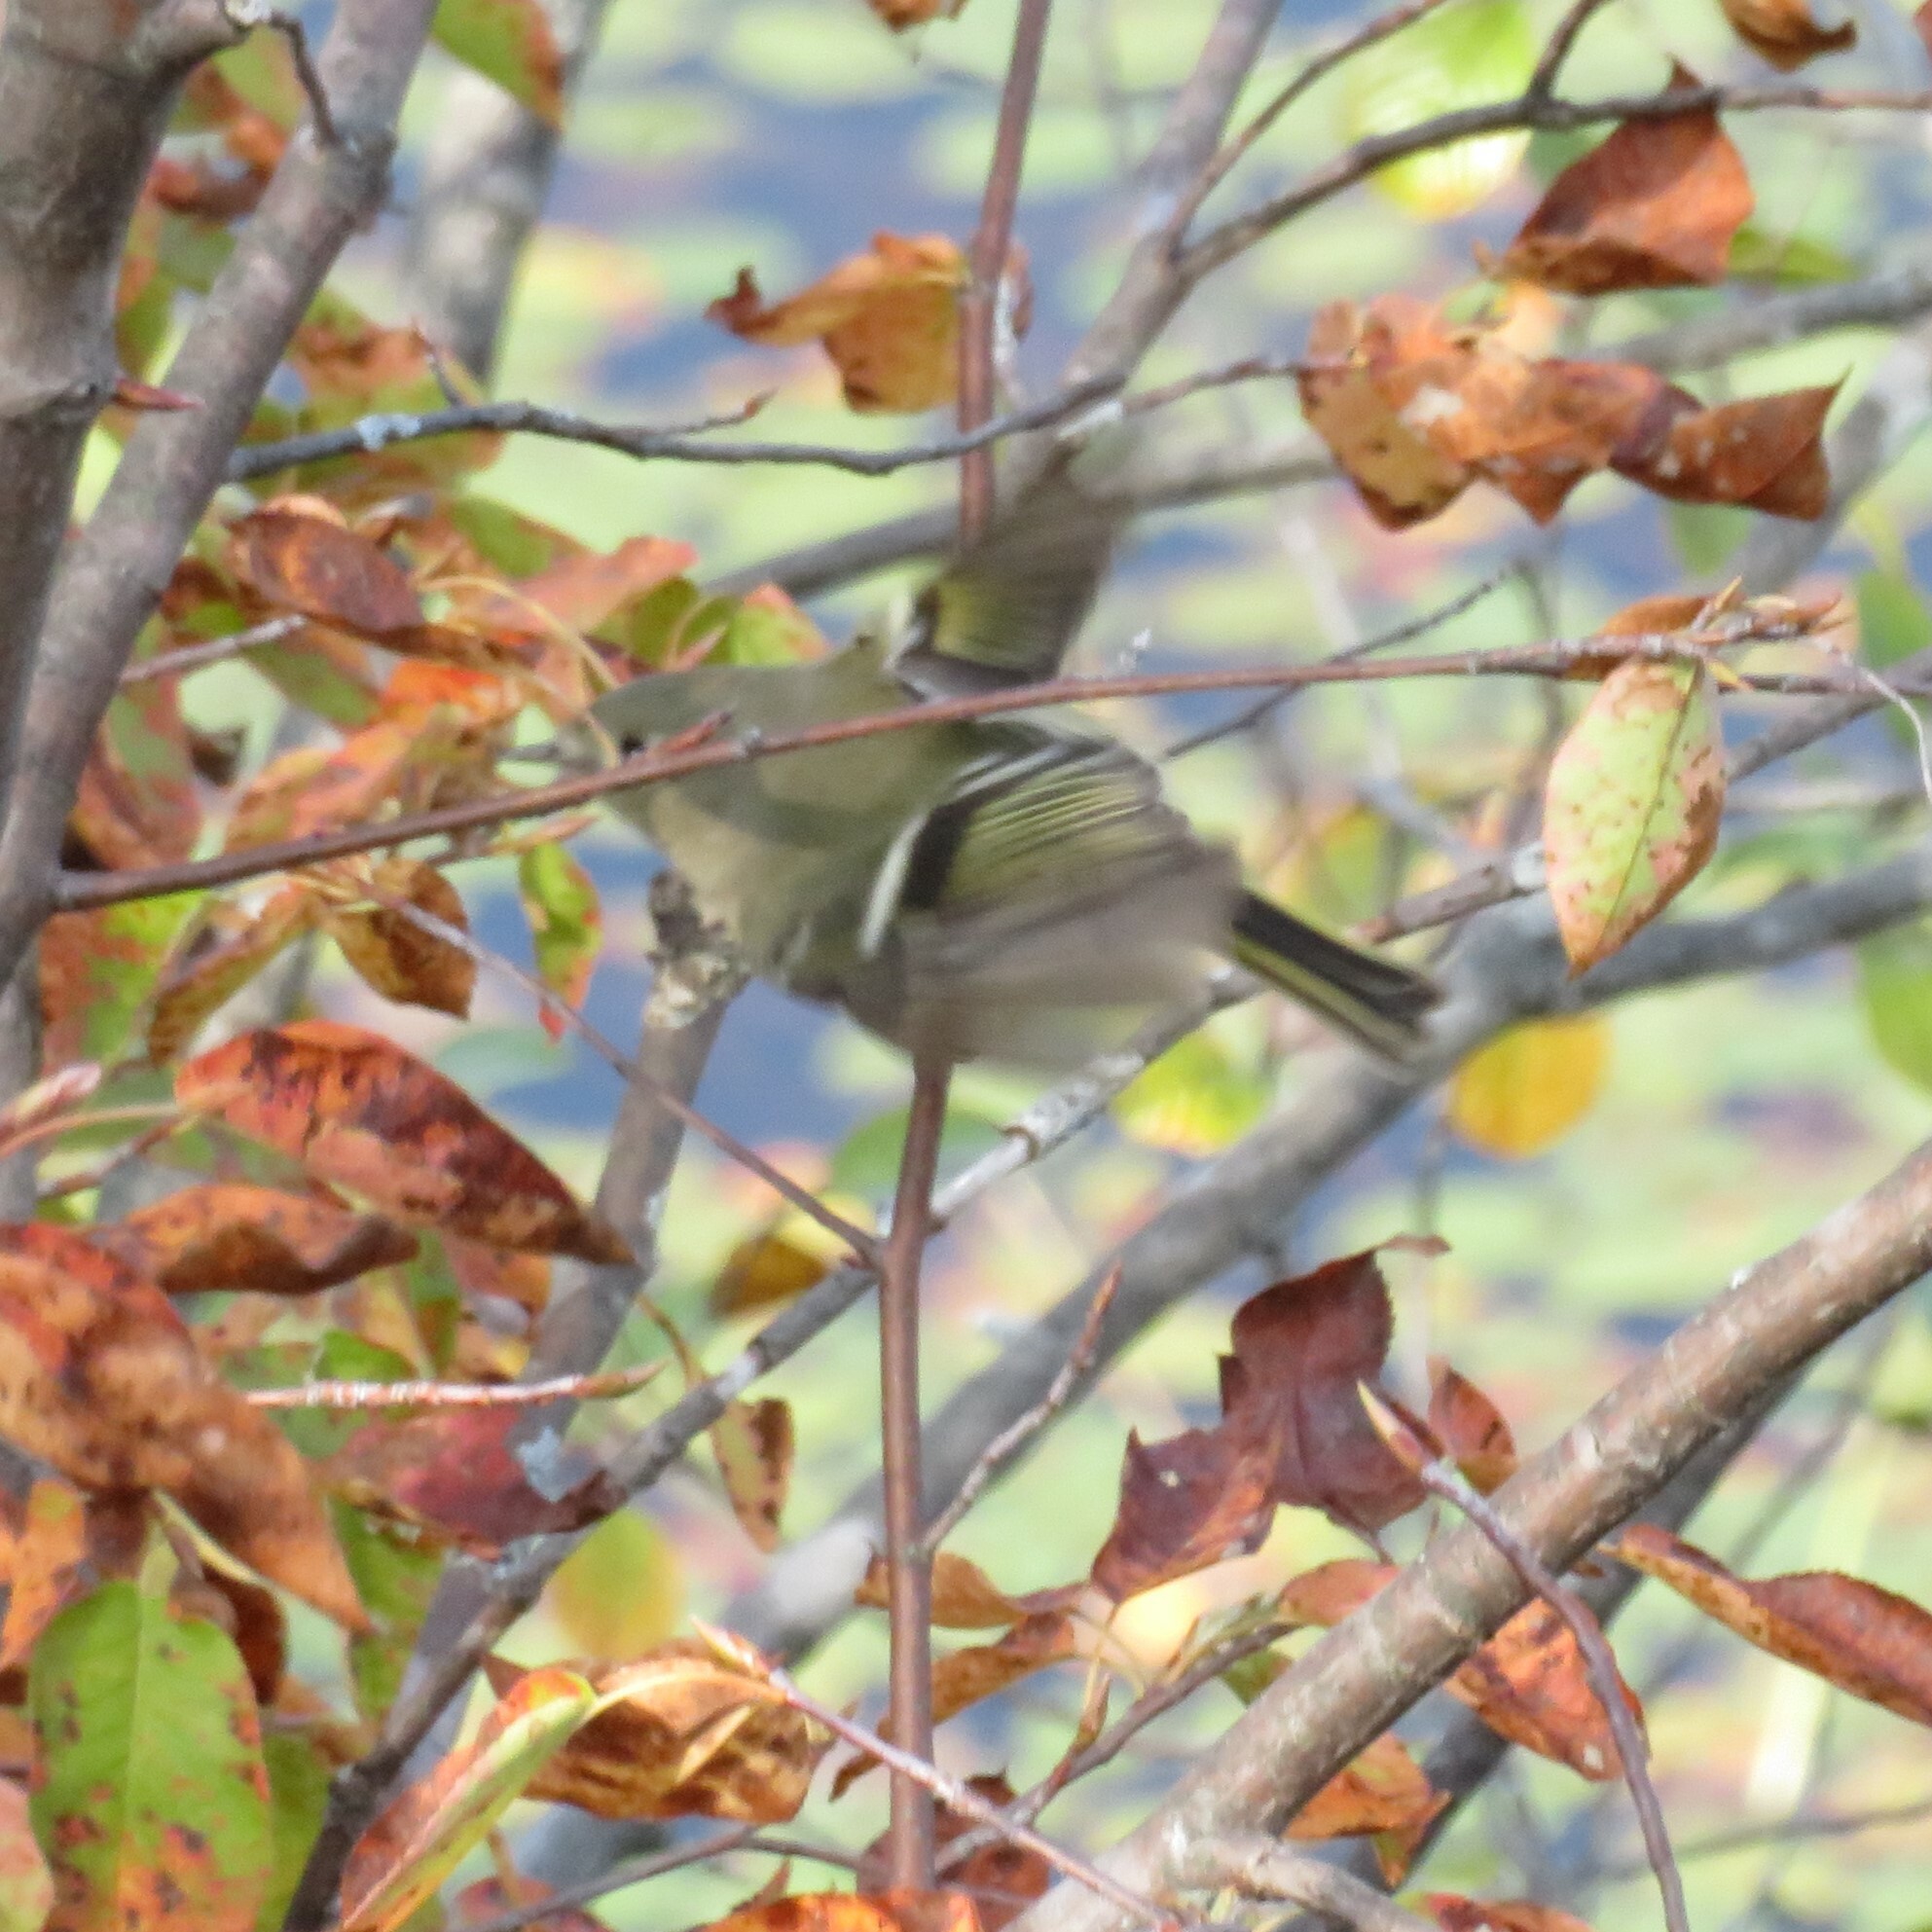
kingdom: Animalia
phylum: Chordata
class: Aves
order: Passeriformes
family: Regulidae
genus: Regulus
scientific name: Regulus calendula
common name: Ruby-crowned kinglet
